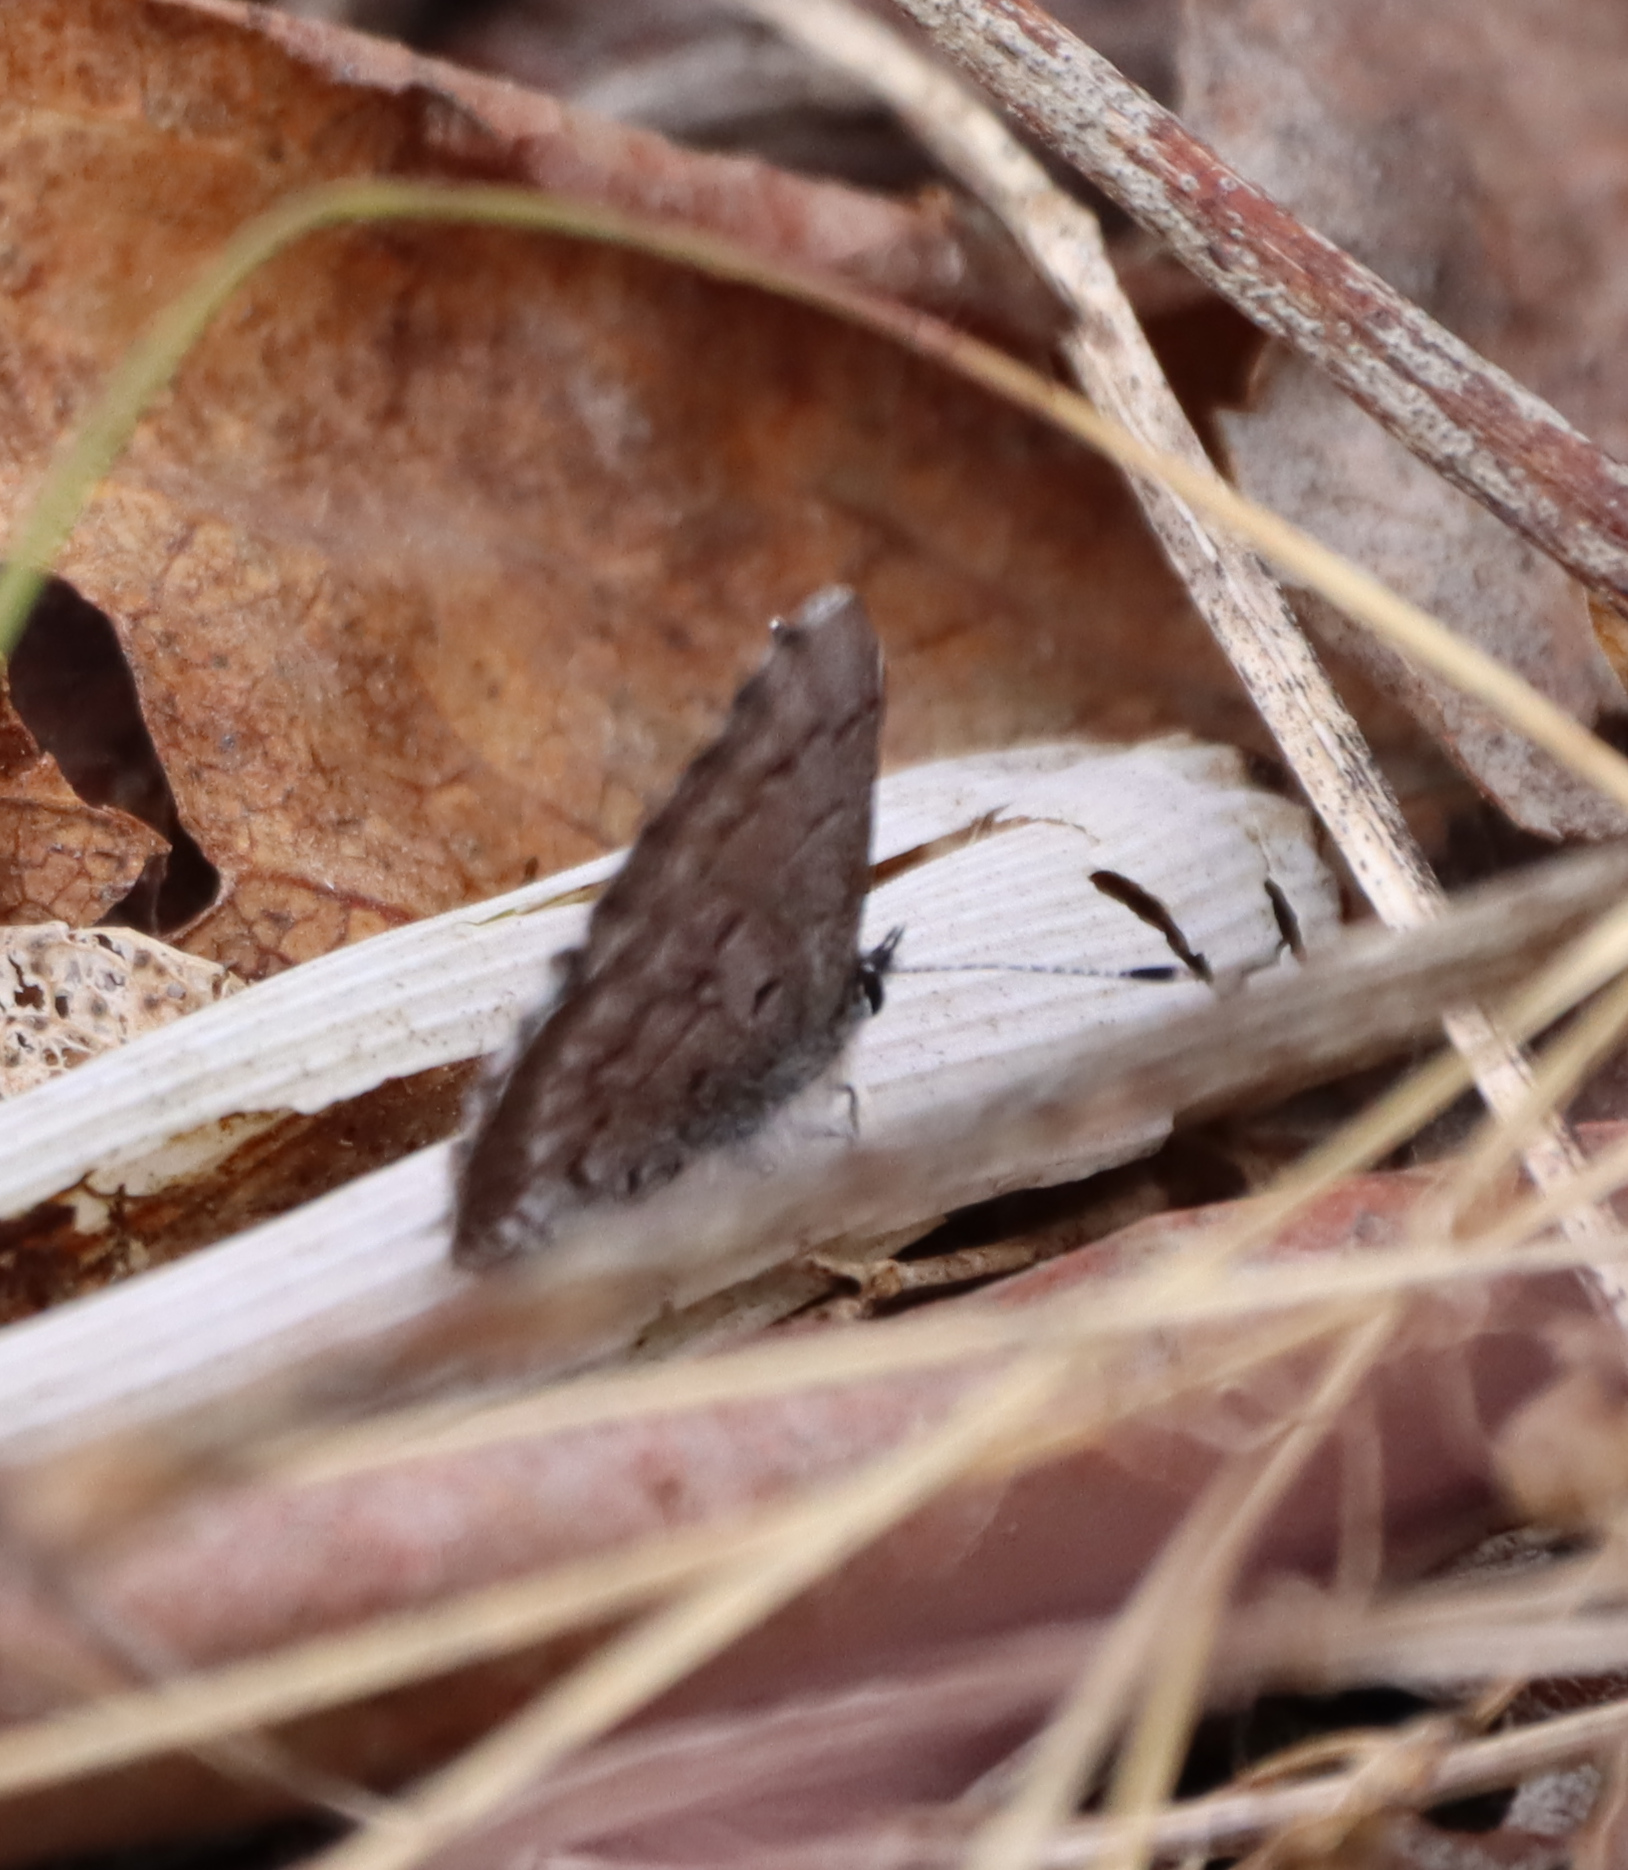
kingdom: Animalia
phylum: Arthropoda
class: Insecta
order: Lepidoptera
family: Lycaenidae
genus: Celastrina
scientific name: Celastrina lucia
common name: Lucia azure
